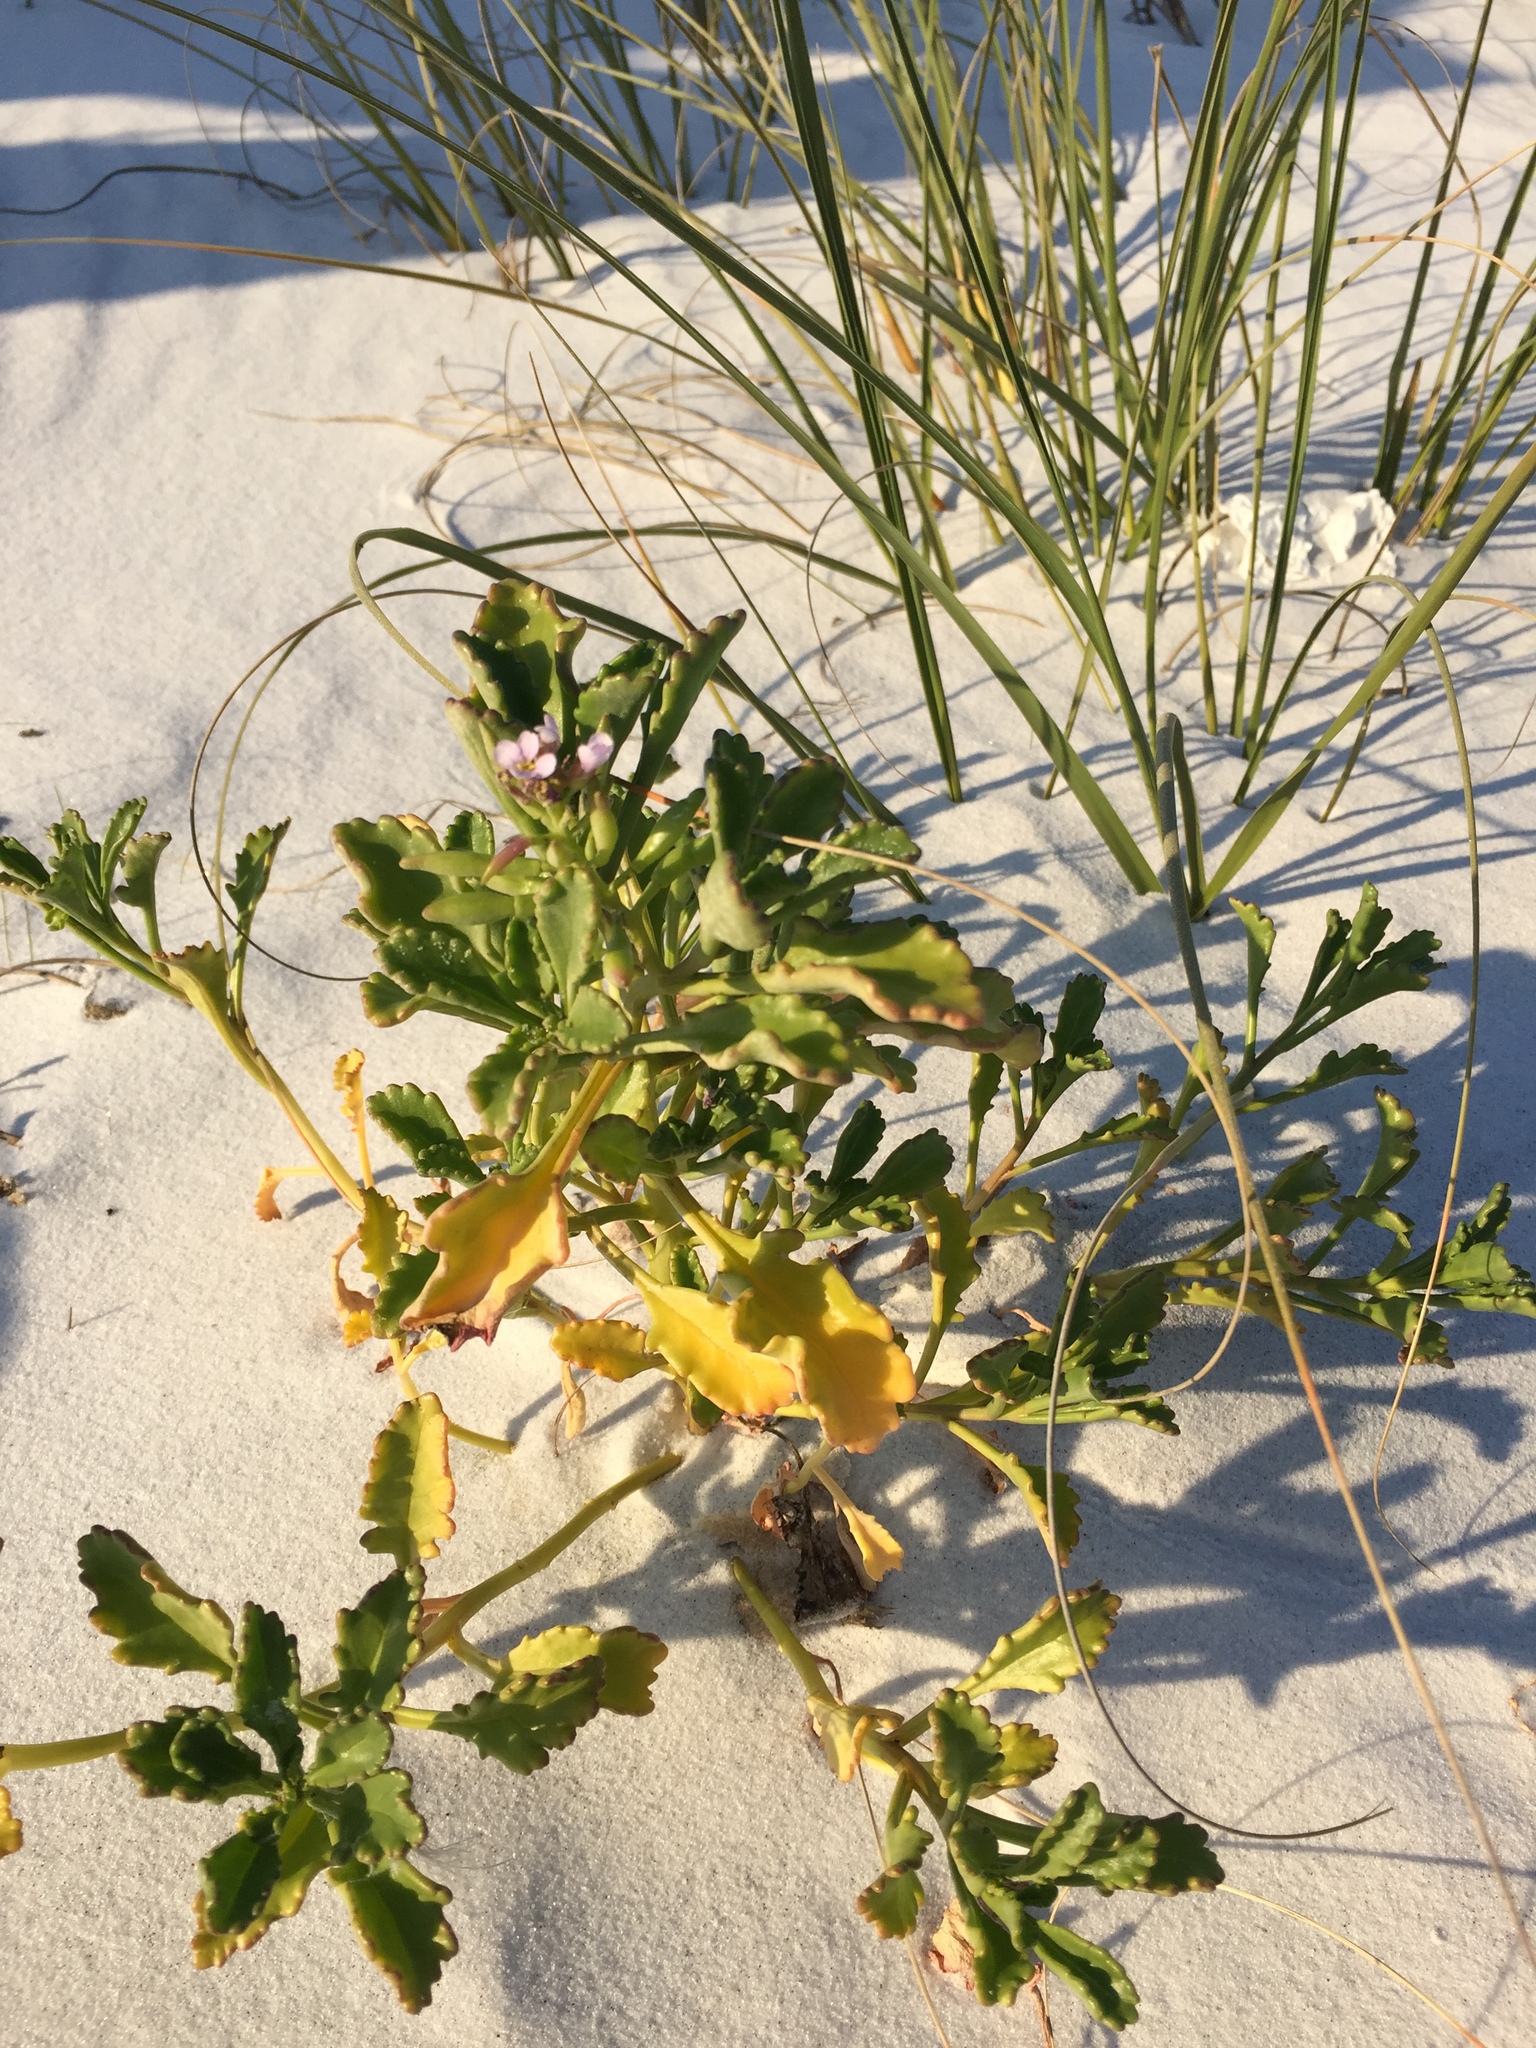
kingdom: Plantae
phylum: Tracheophyta
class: Magnoliopsida
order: Brassicales
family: Brassicaceae
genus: Cakile
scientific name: Cakile constricta
